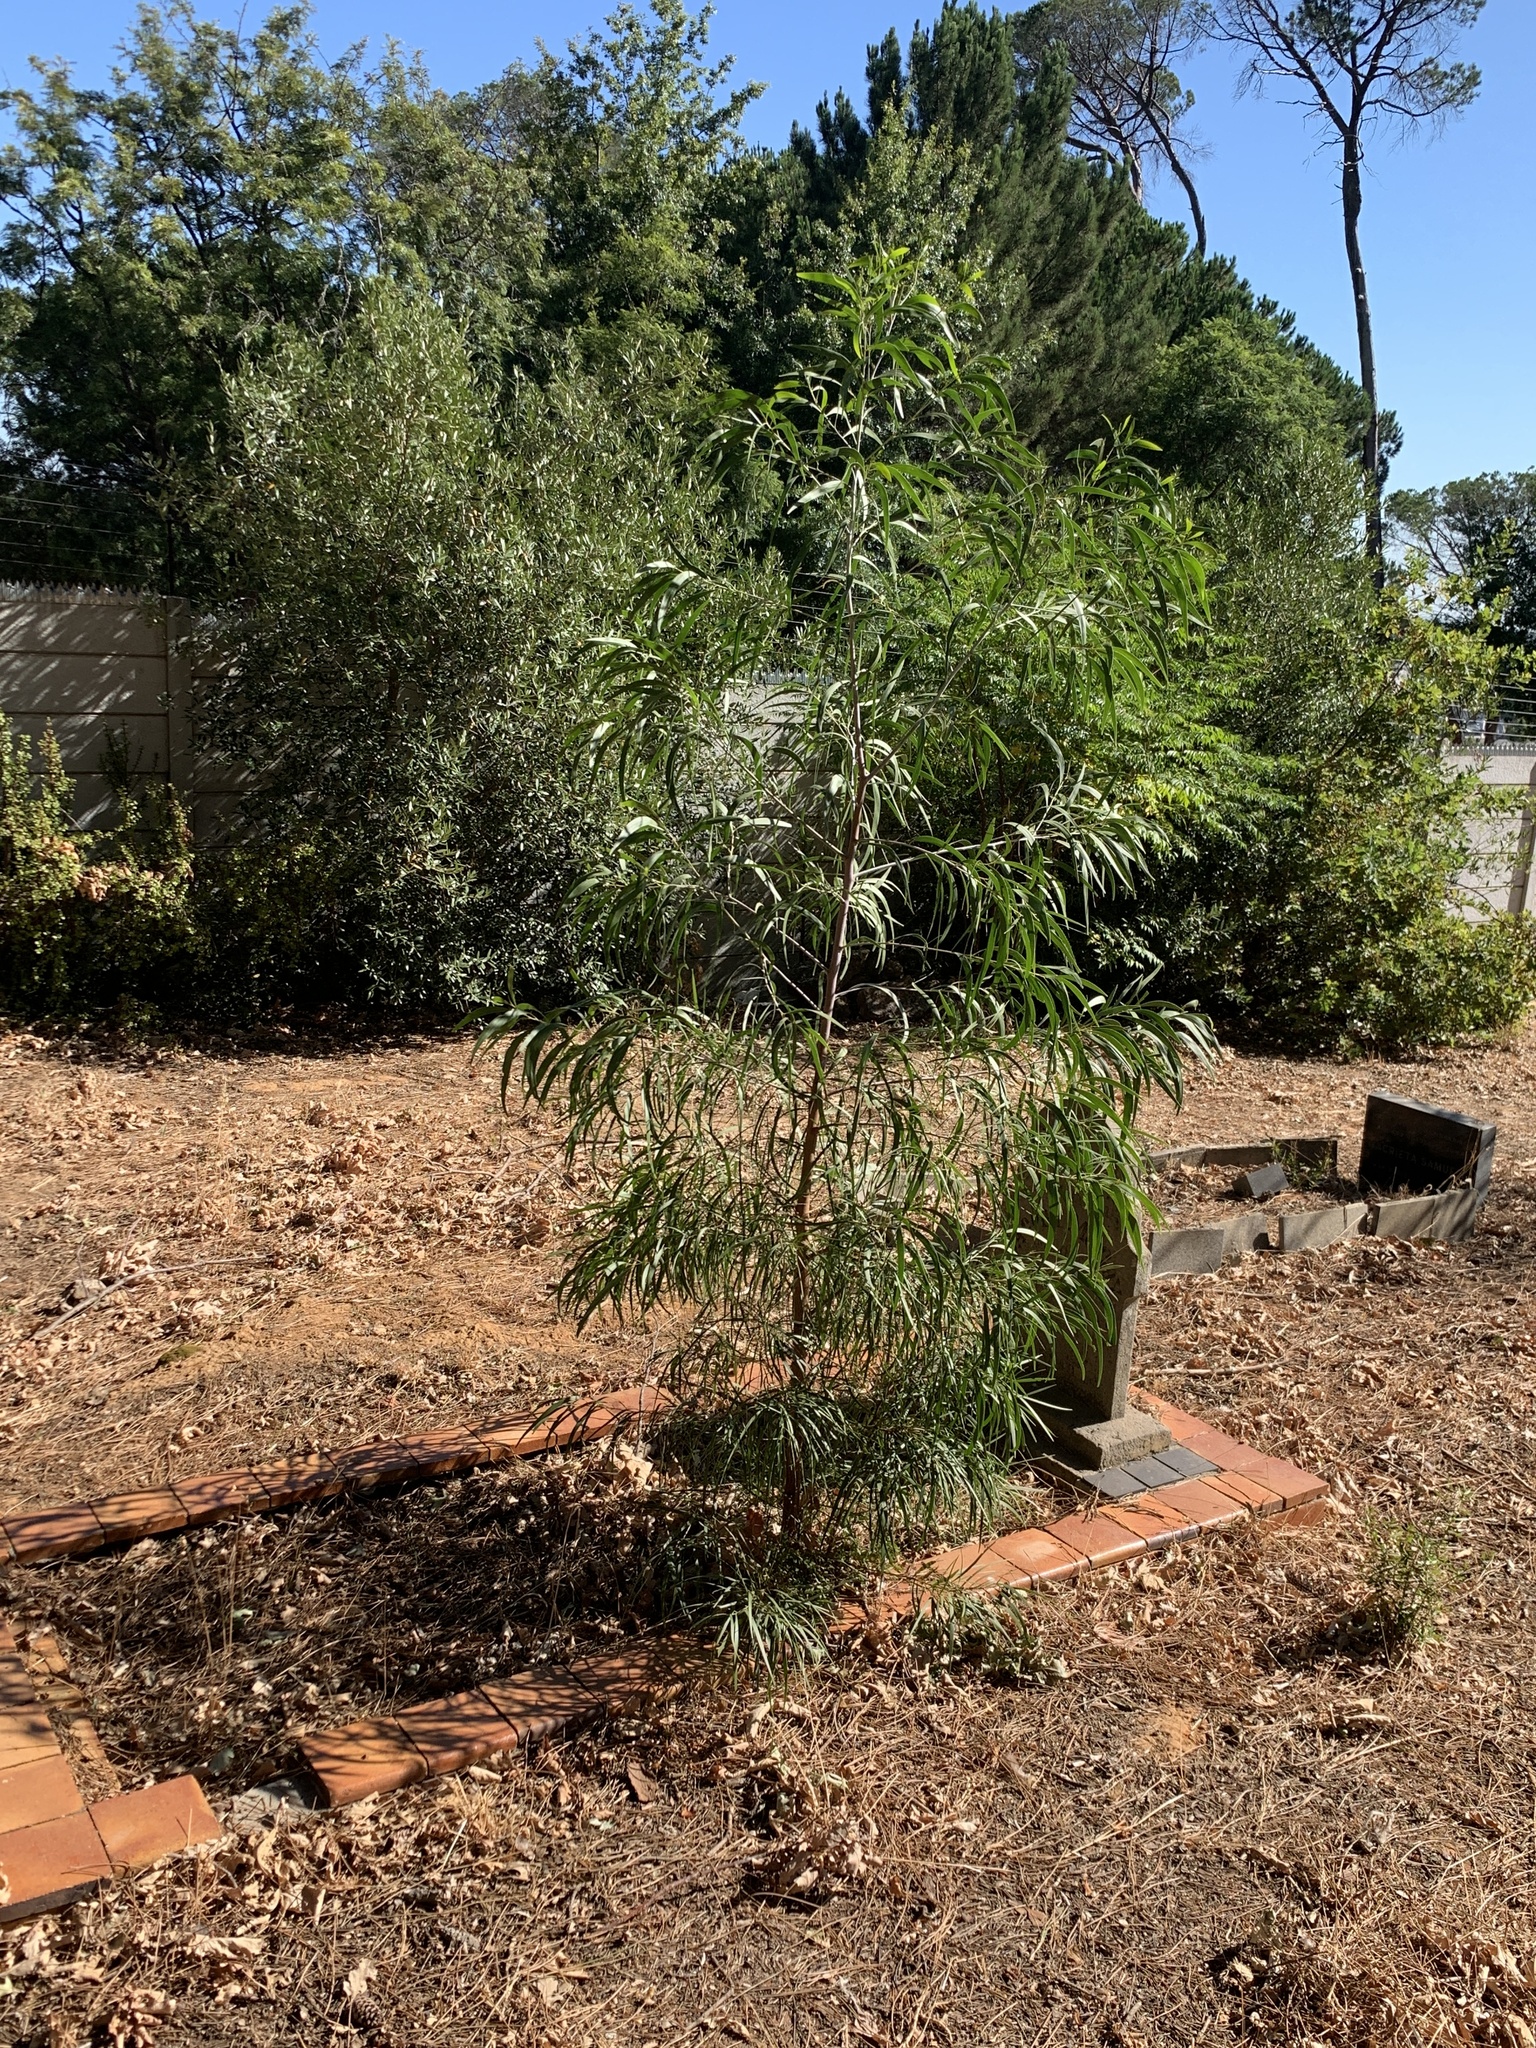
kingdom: Plantae
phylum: Tracheophyta
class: Magnoliopsida
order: Fabales
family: Fabaceae
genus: Acacia
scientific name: Acacia implexa
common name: Black wattle
